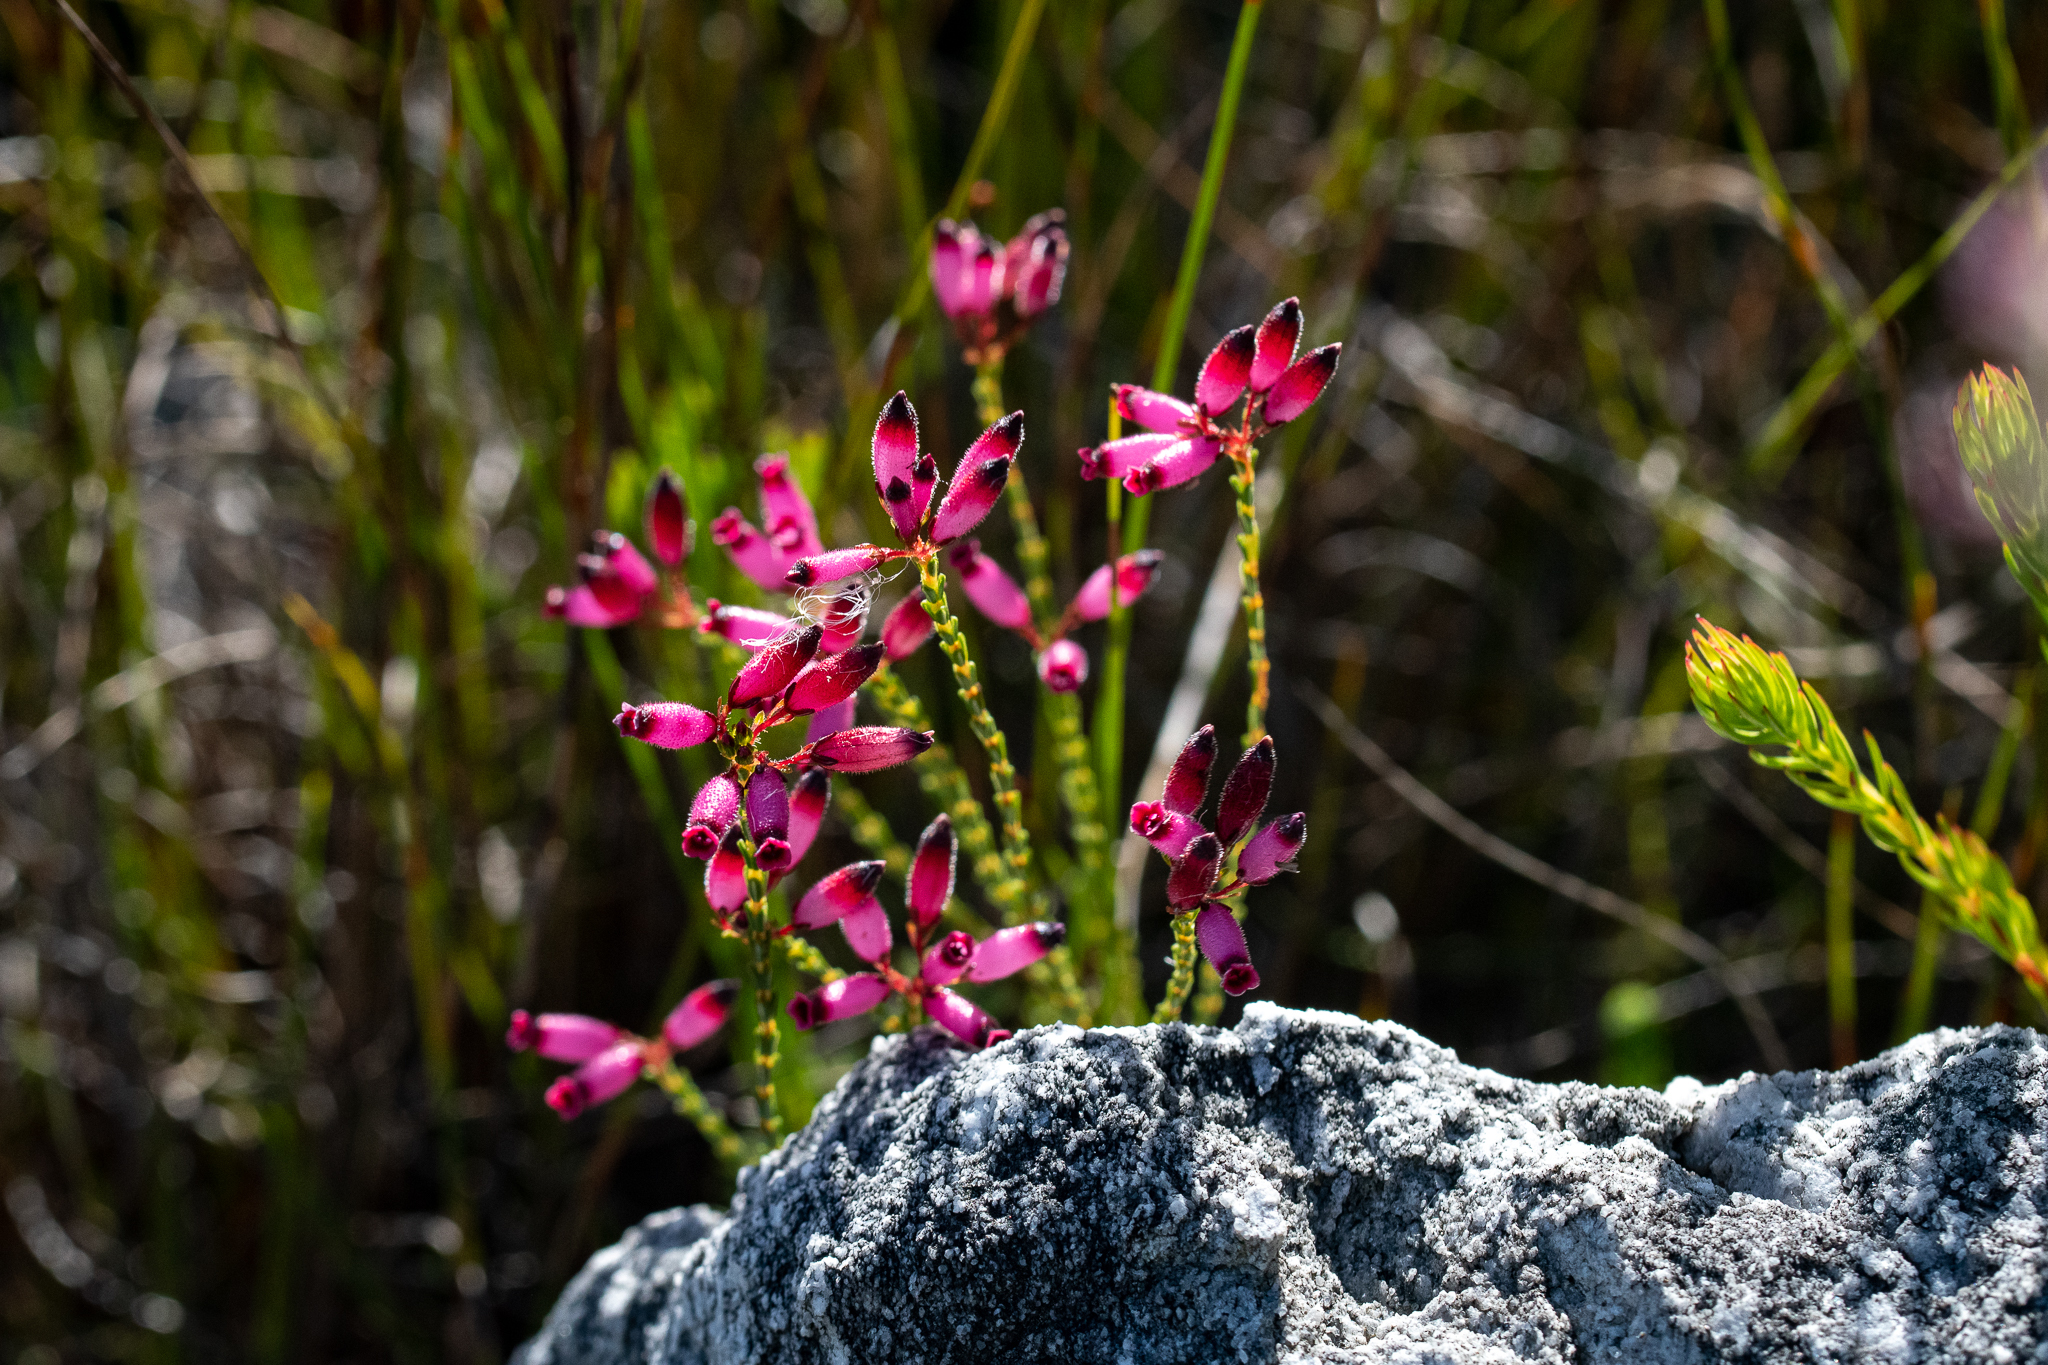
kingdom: Plantae
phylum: Tracheophyta
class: Magnoliopsida
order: Ericales
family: Ericaceae
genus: Erica
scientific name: Erica cristata
